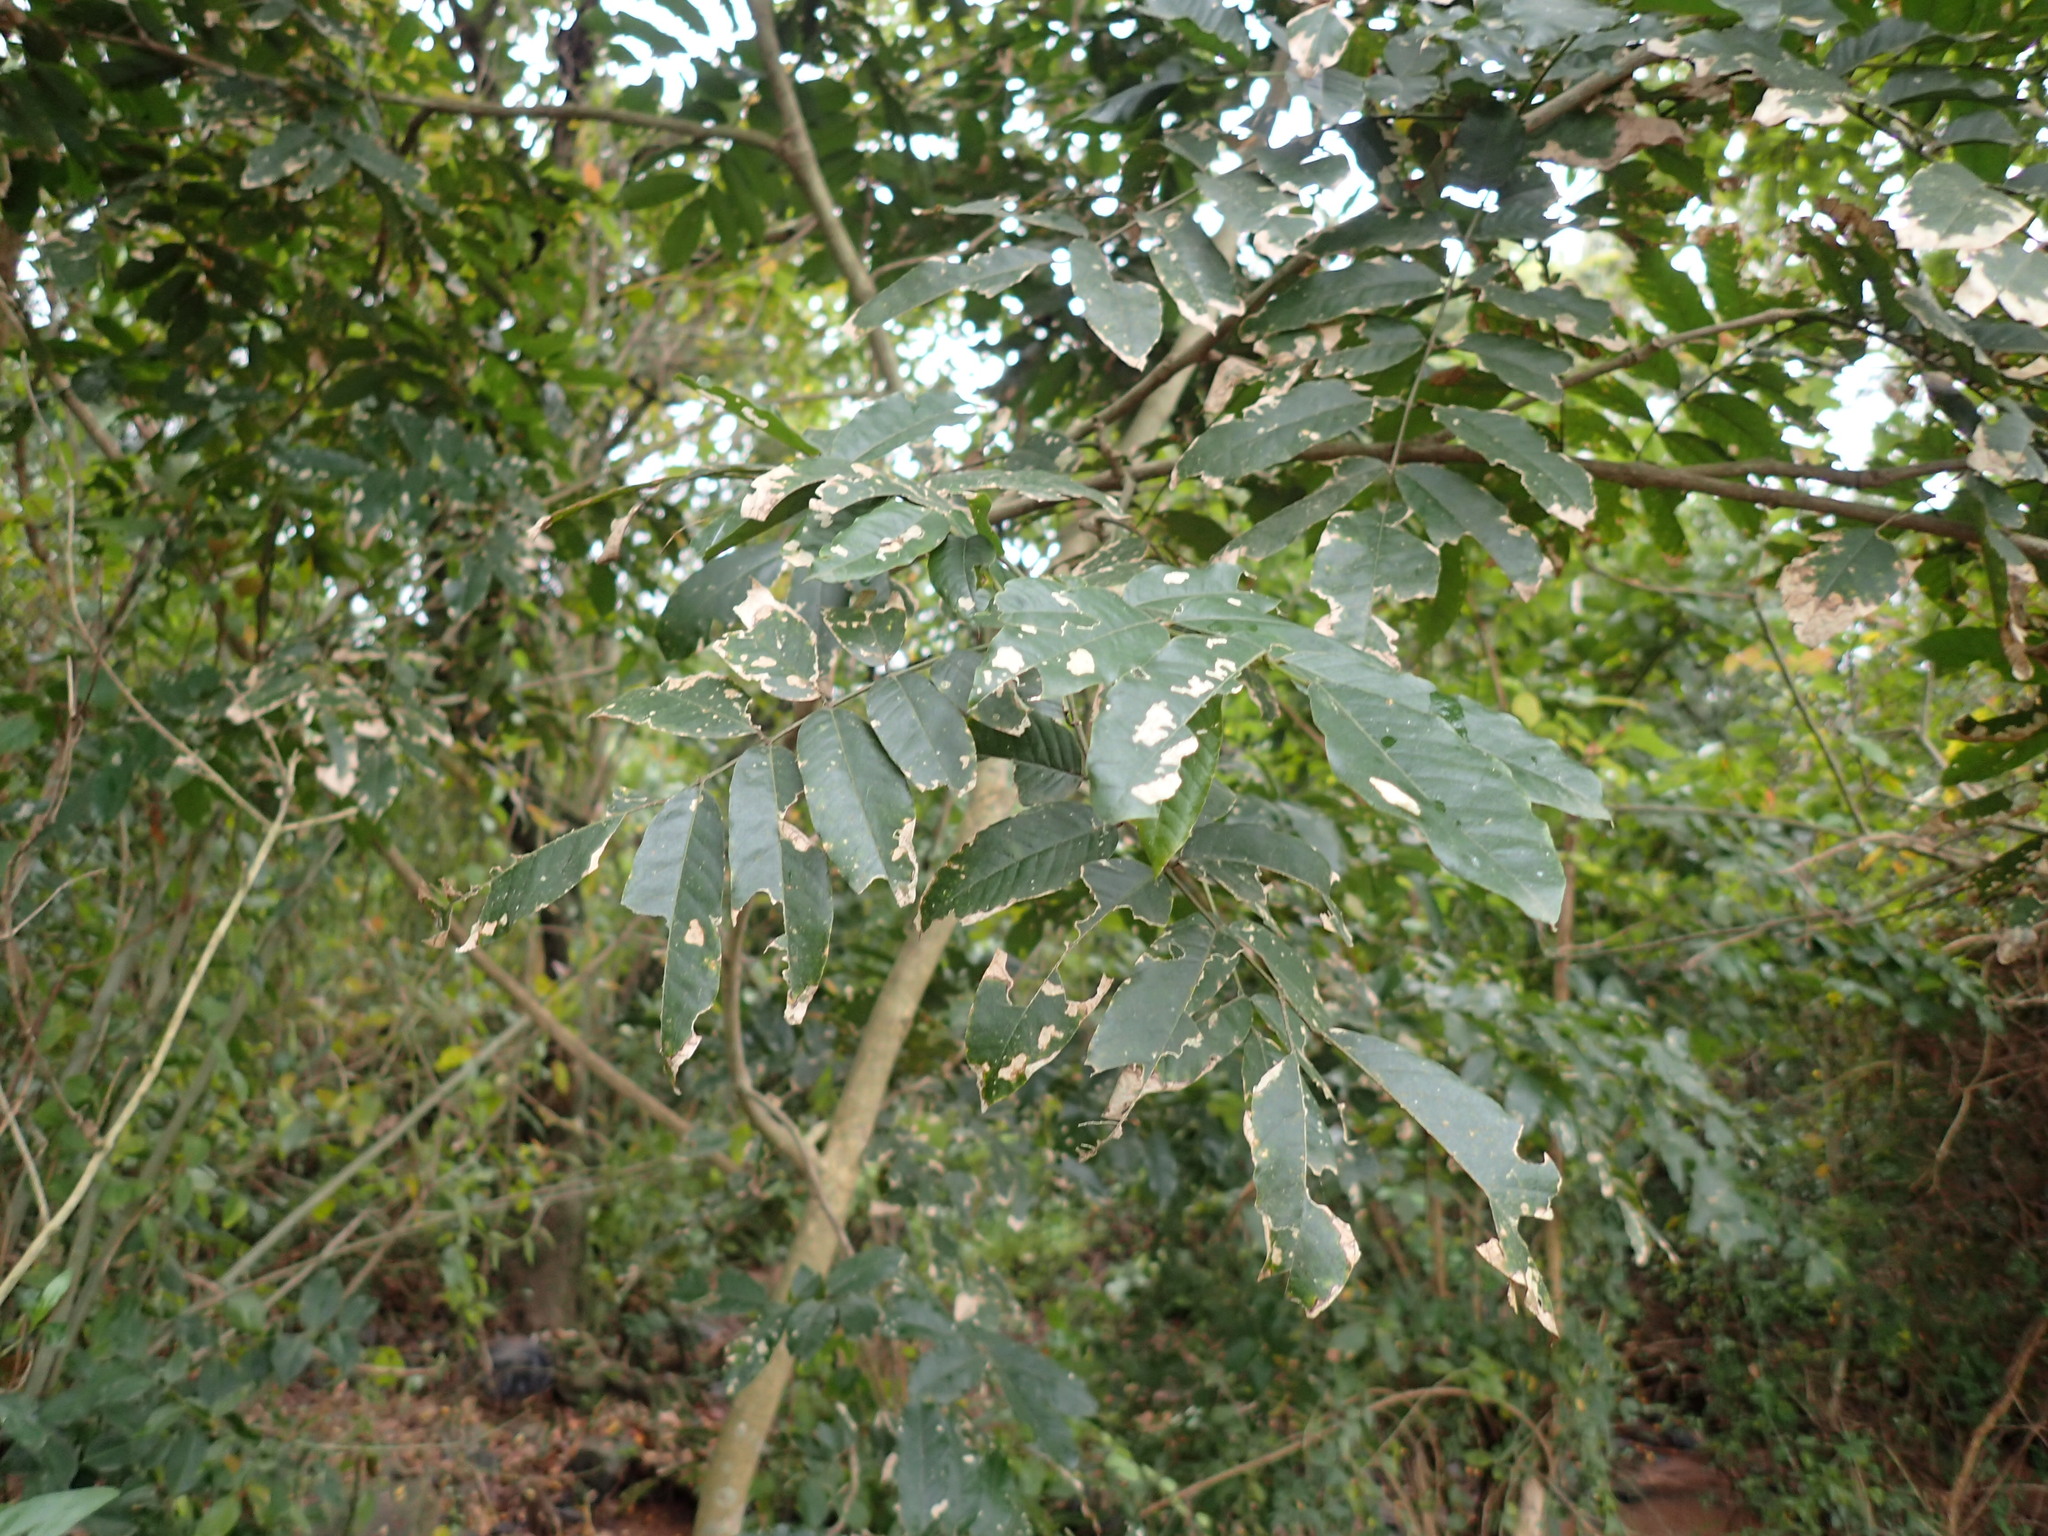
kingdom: Plantae
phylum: Tracheophyta
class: Magnoliopsida
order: Fabales
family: Fabaceae
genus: Millettia
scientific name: Millettia grandis
